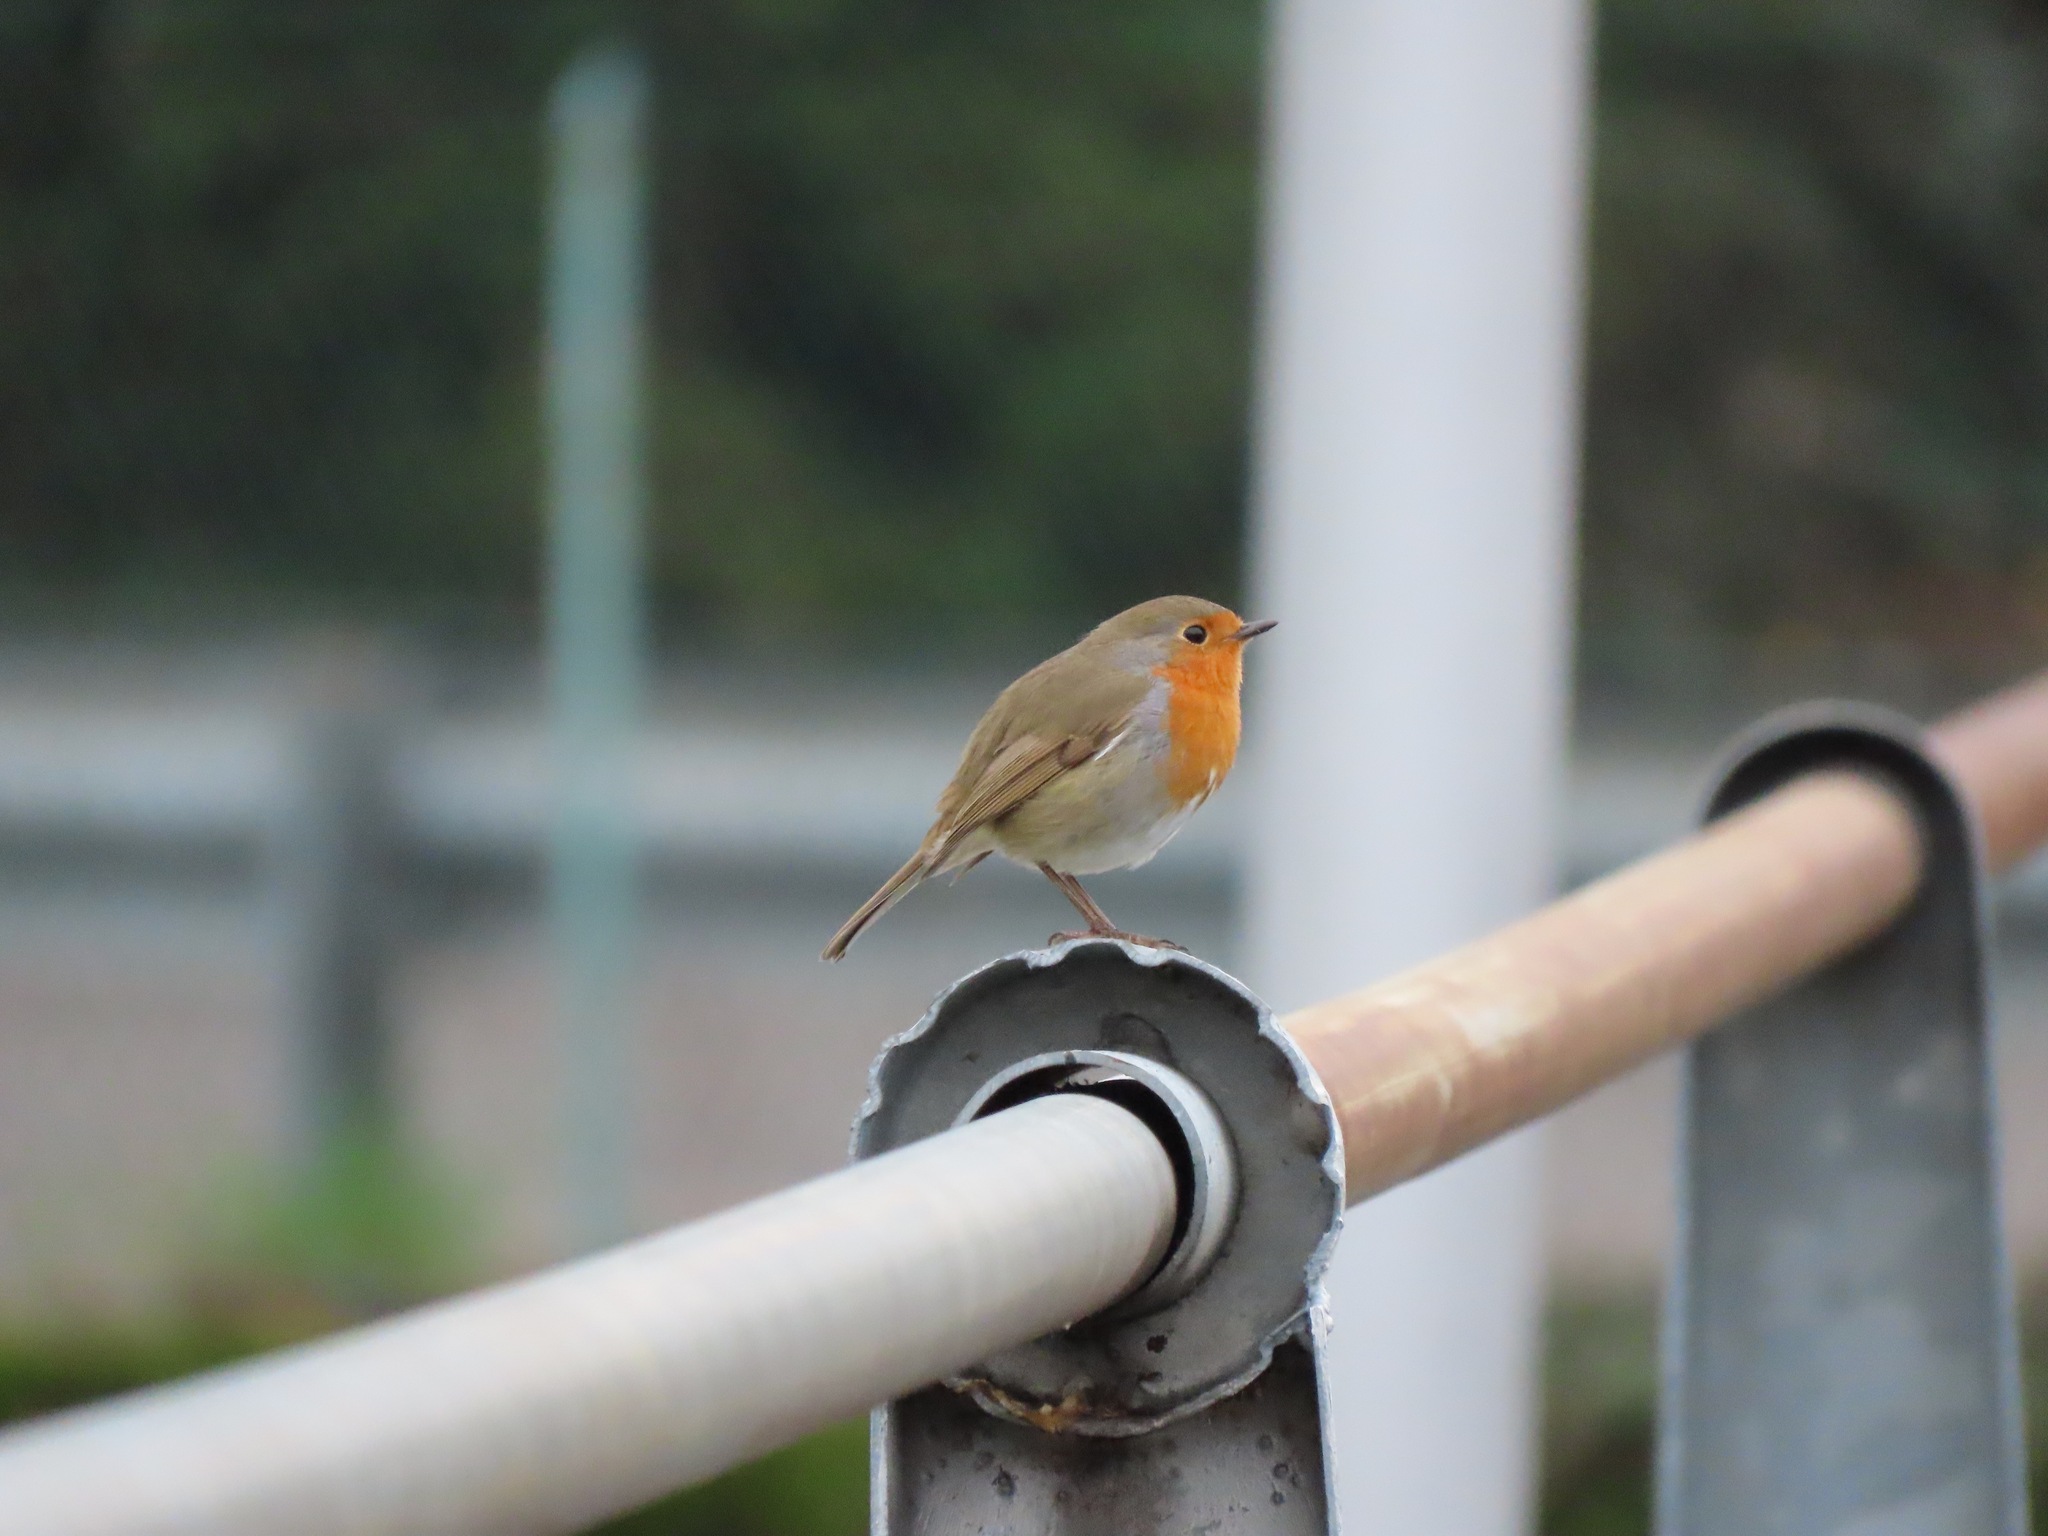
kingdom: Animalia
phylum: Chordata
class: Aves
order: Passeriformes
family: Muscicapidae
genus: Erithacus
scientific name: Erithacus rubecula
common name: European robin
